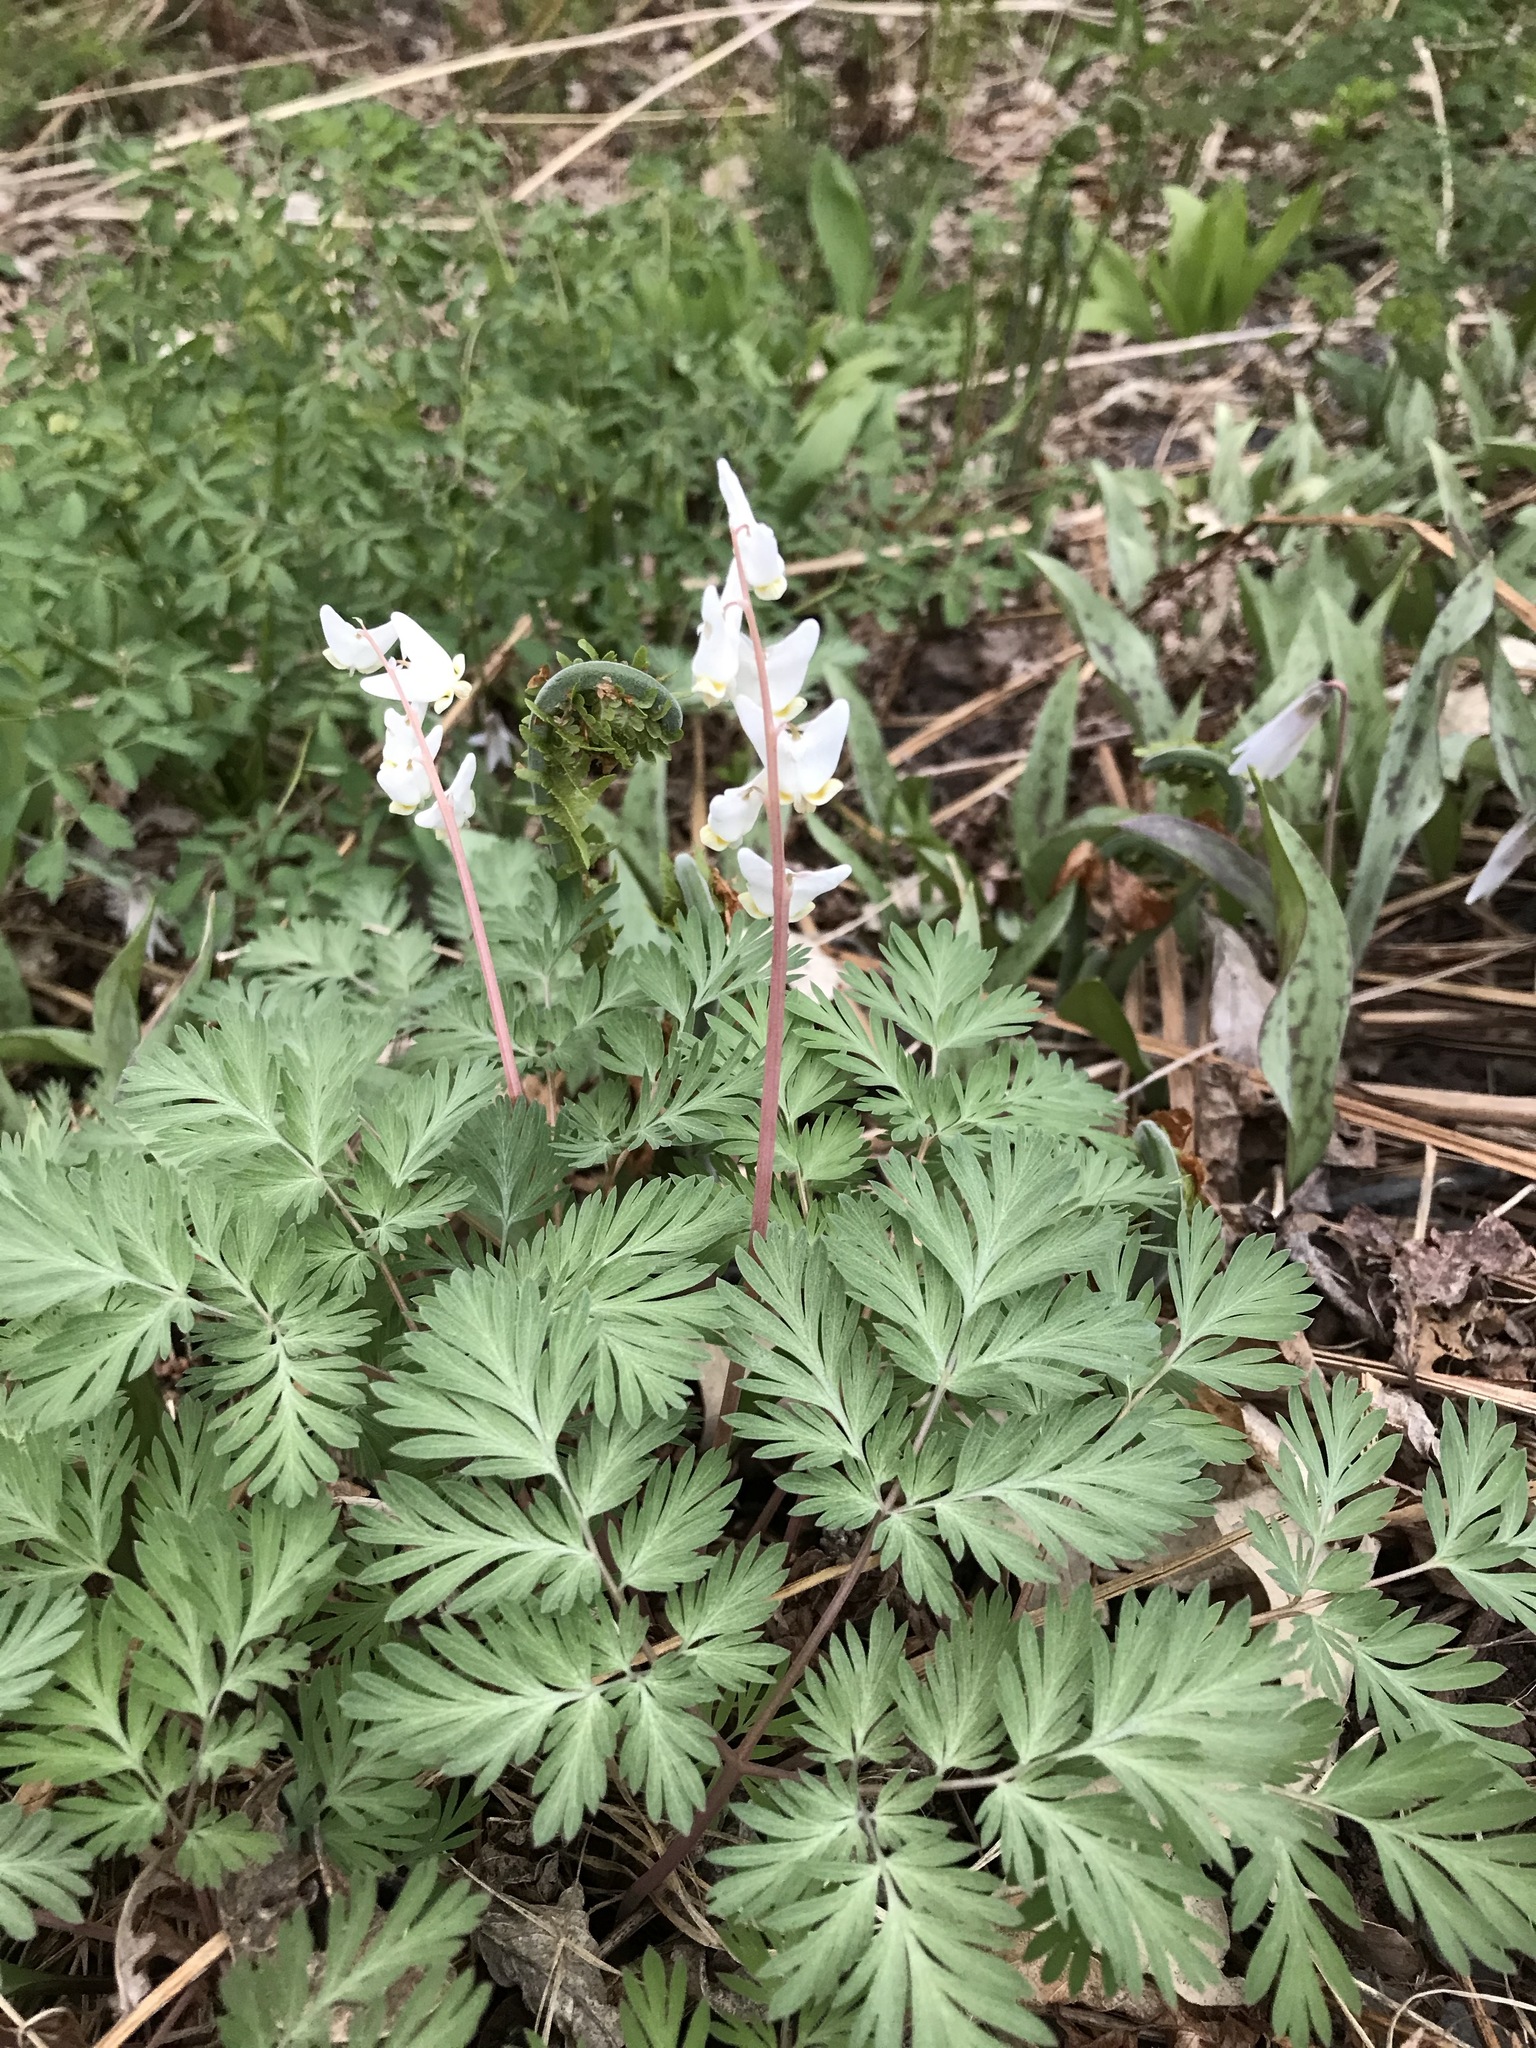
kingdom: Plantae
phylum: Tracheophyta
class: Magnoliopsida
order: Ranunculales
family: Papaveraceae
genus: Dicentra
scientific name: Dicentra cucullaria
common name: Dutchman's breeches
